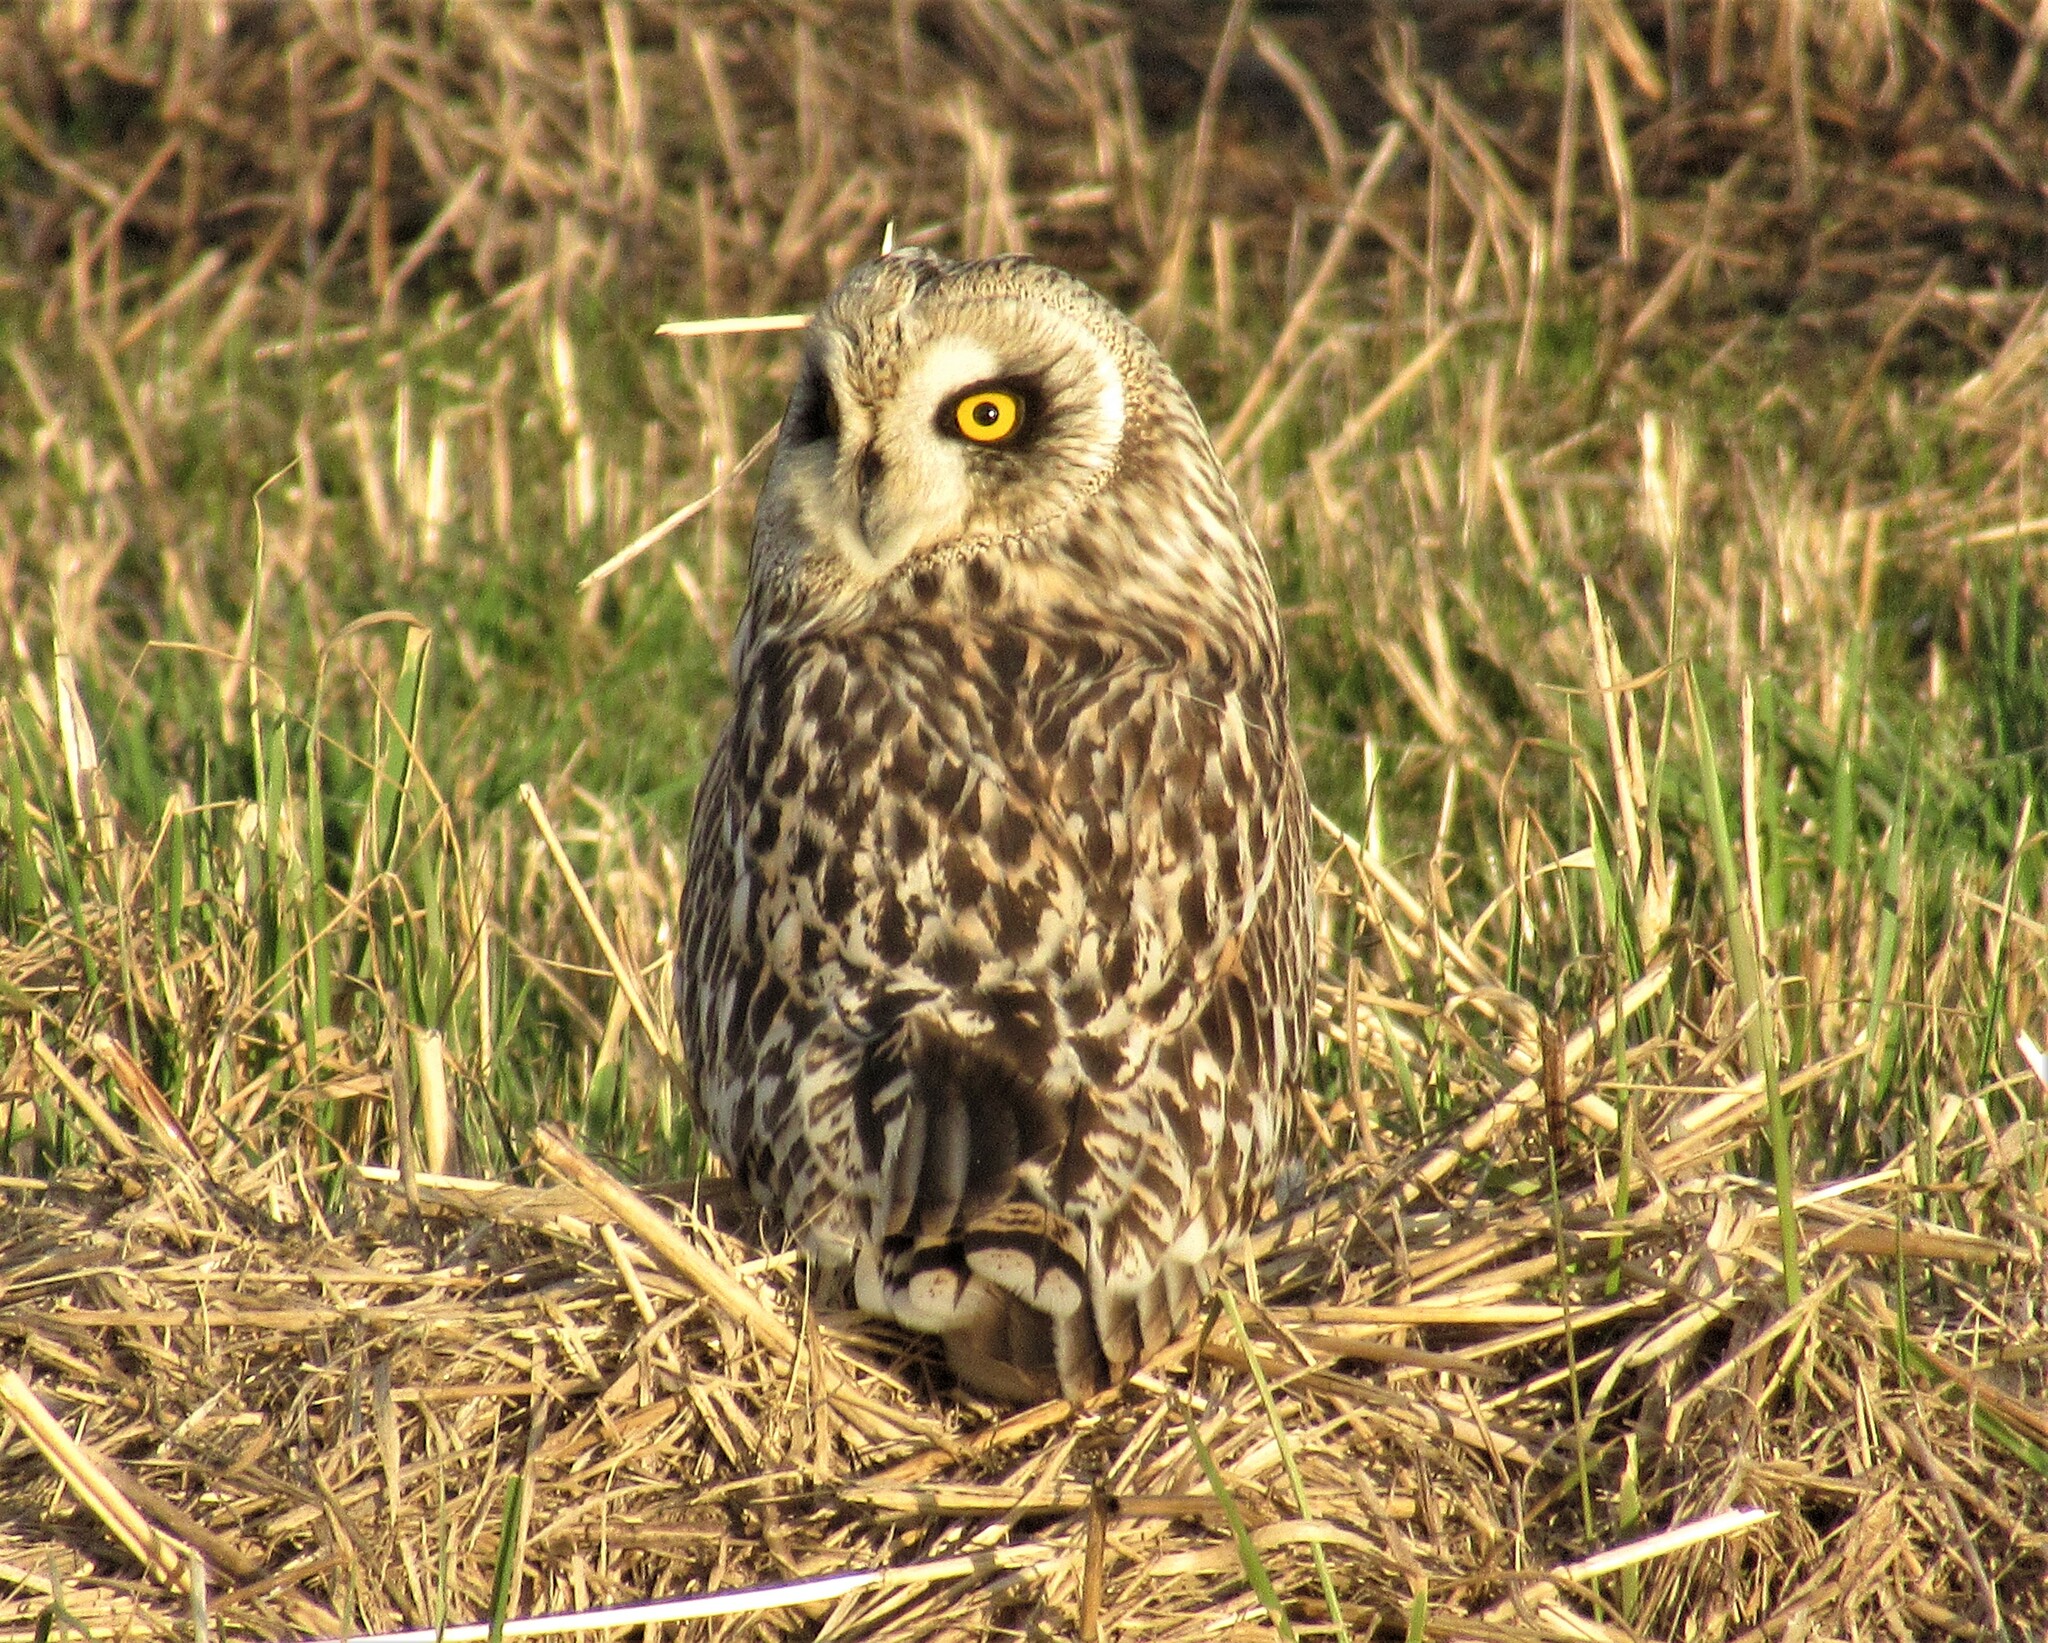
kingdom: Animalia
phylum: Chordata
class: Aves
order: Strigiformes
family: Strigidae
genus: Asio
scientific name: Asio flammeus
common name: Short-eared owl
